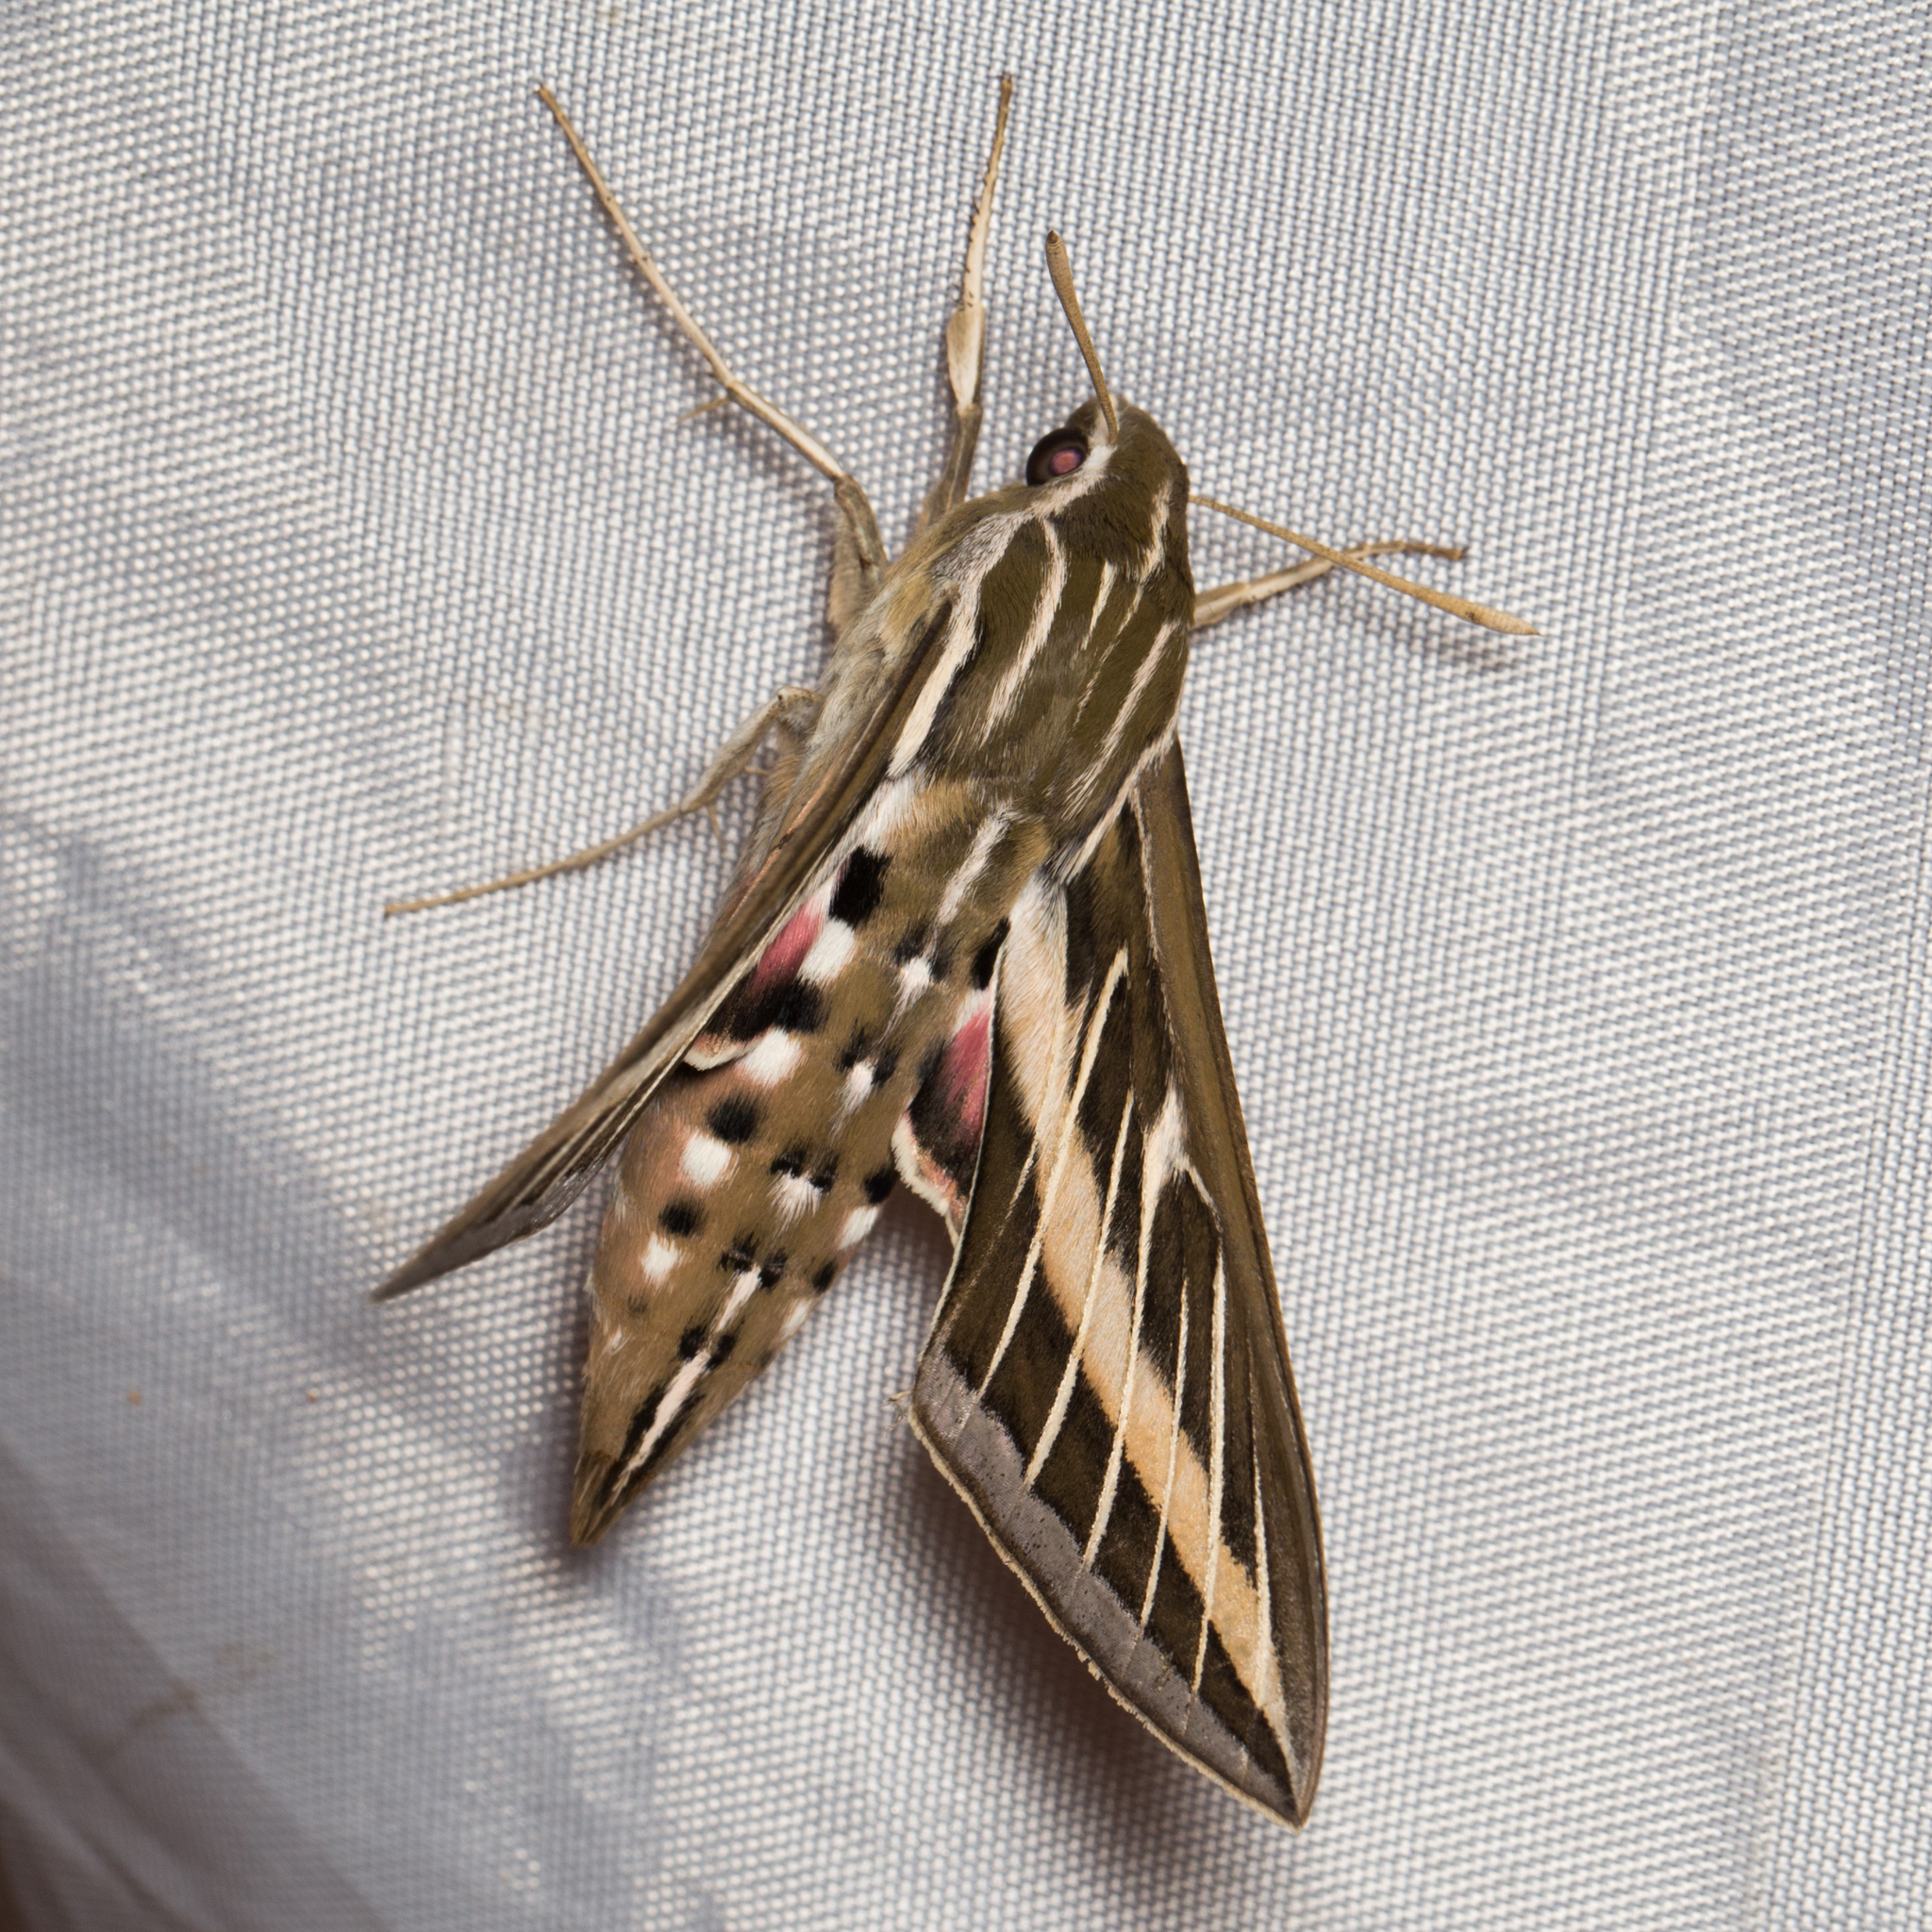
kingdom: Animalia
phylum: Arthropoda
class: Insecta
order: Lepidoptera
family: Sphingidae
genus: Hyles
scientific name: Hyles lineata
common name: White-lined sphinx
